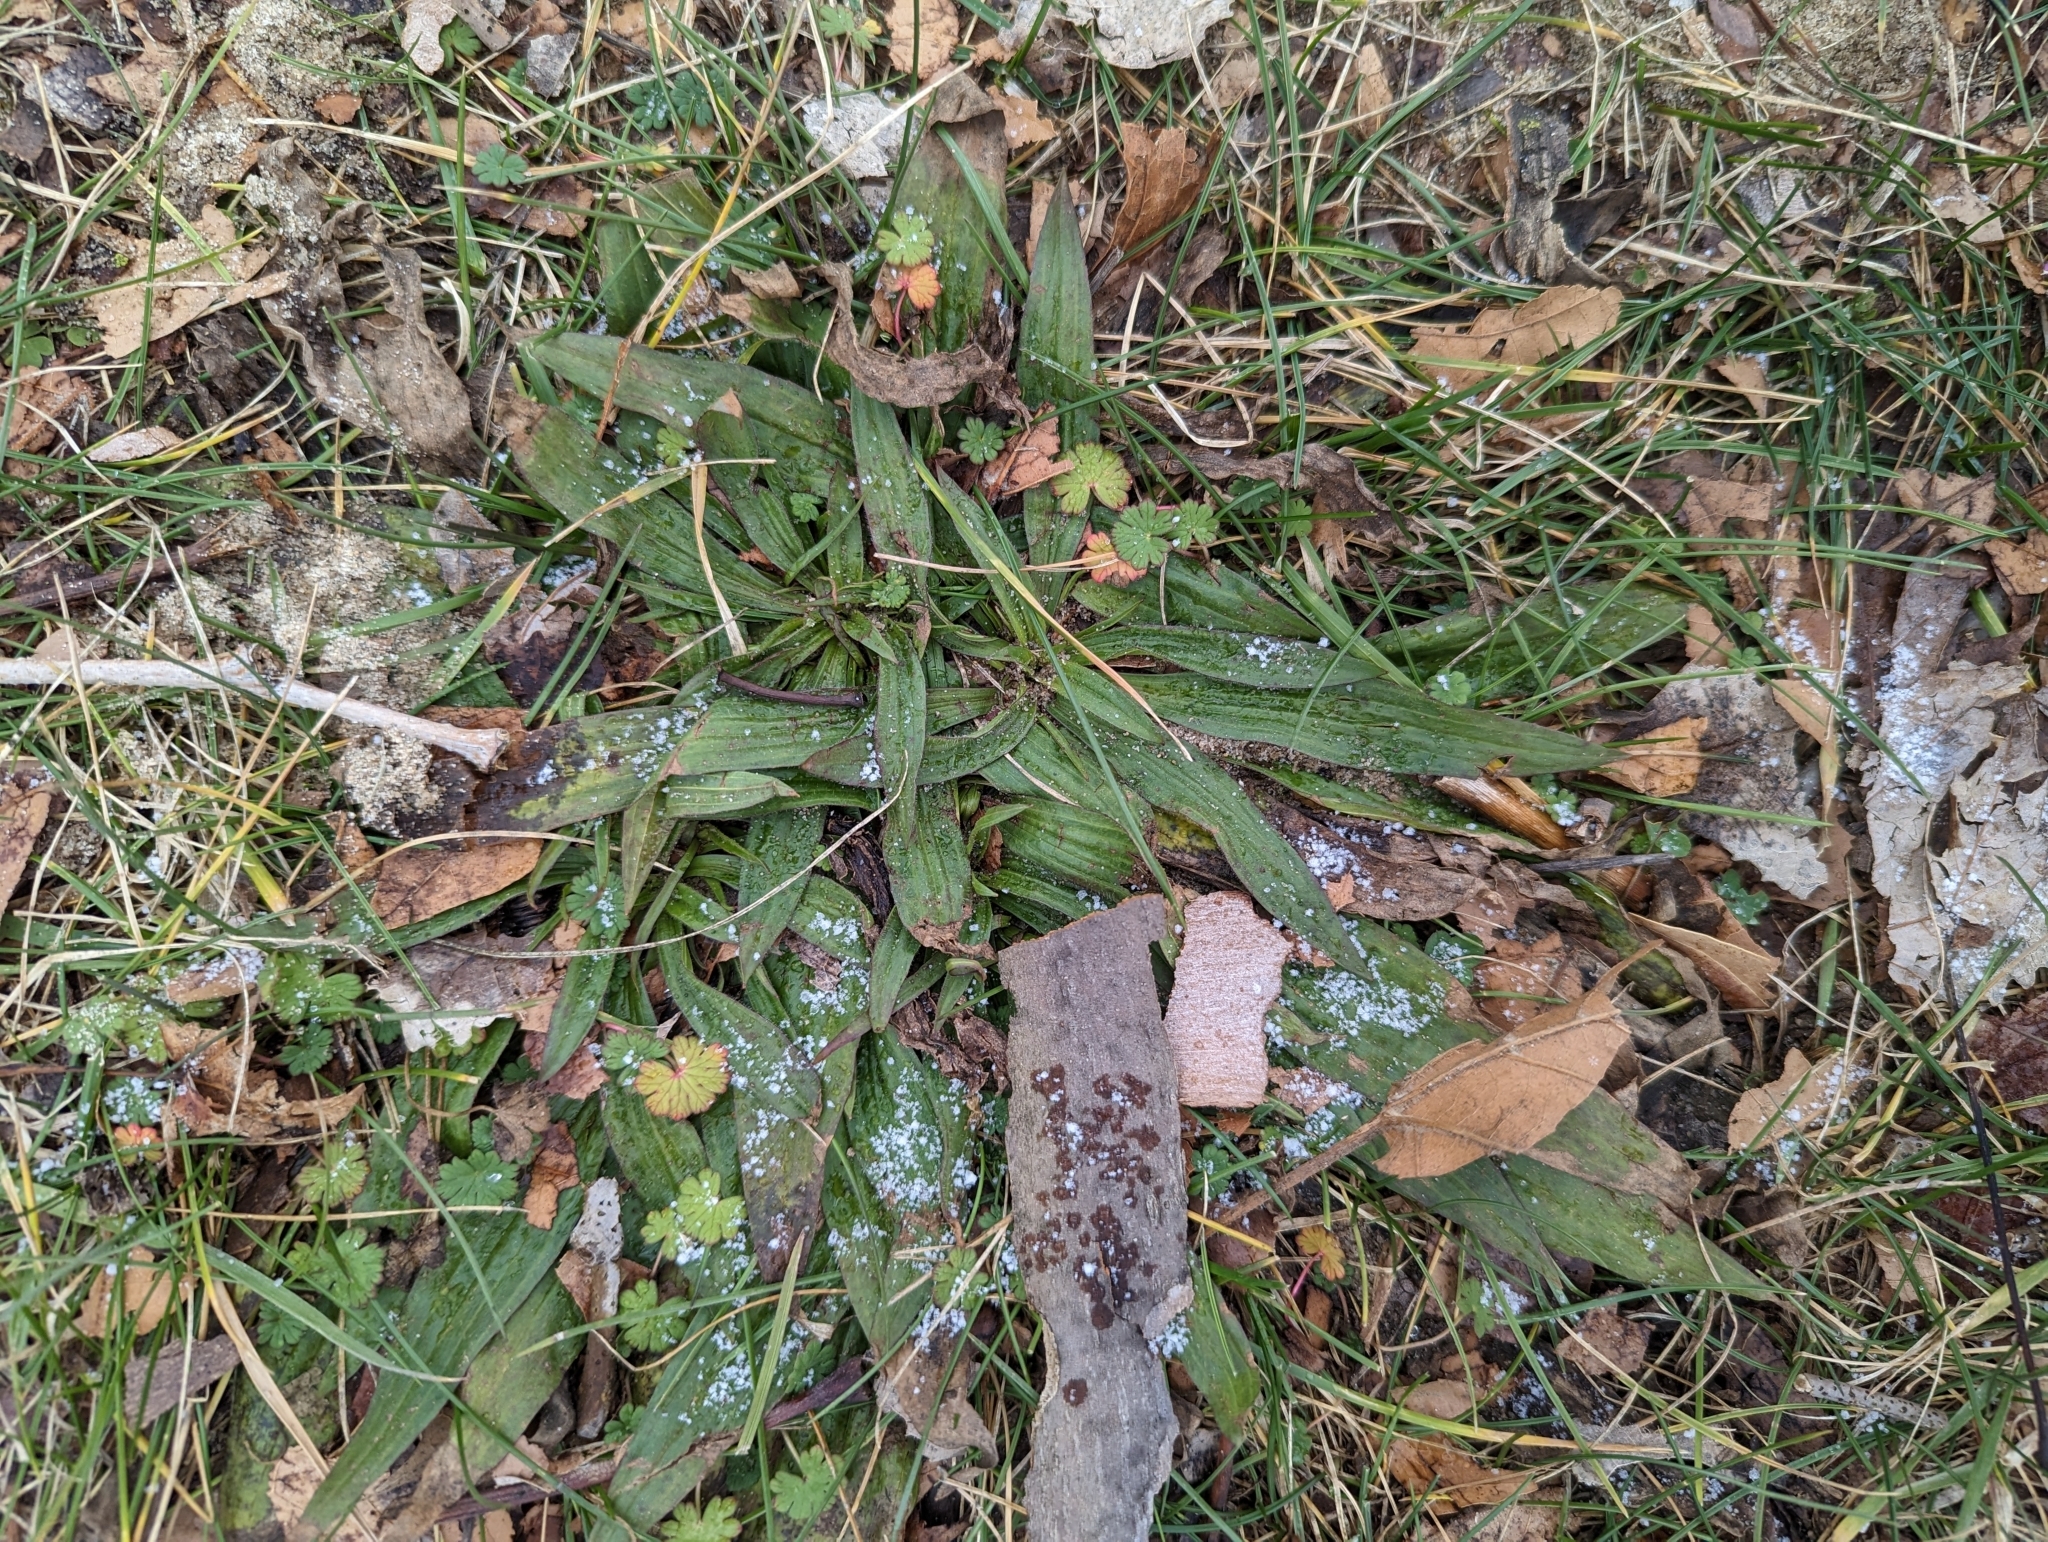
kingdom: Plantae
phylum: Tracheophyta
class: Magnoliopsida
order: Lamiales
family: Plantaginaceae
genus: Plantago
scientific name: Plantago lanceolata
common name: Ribwort plantain
